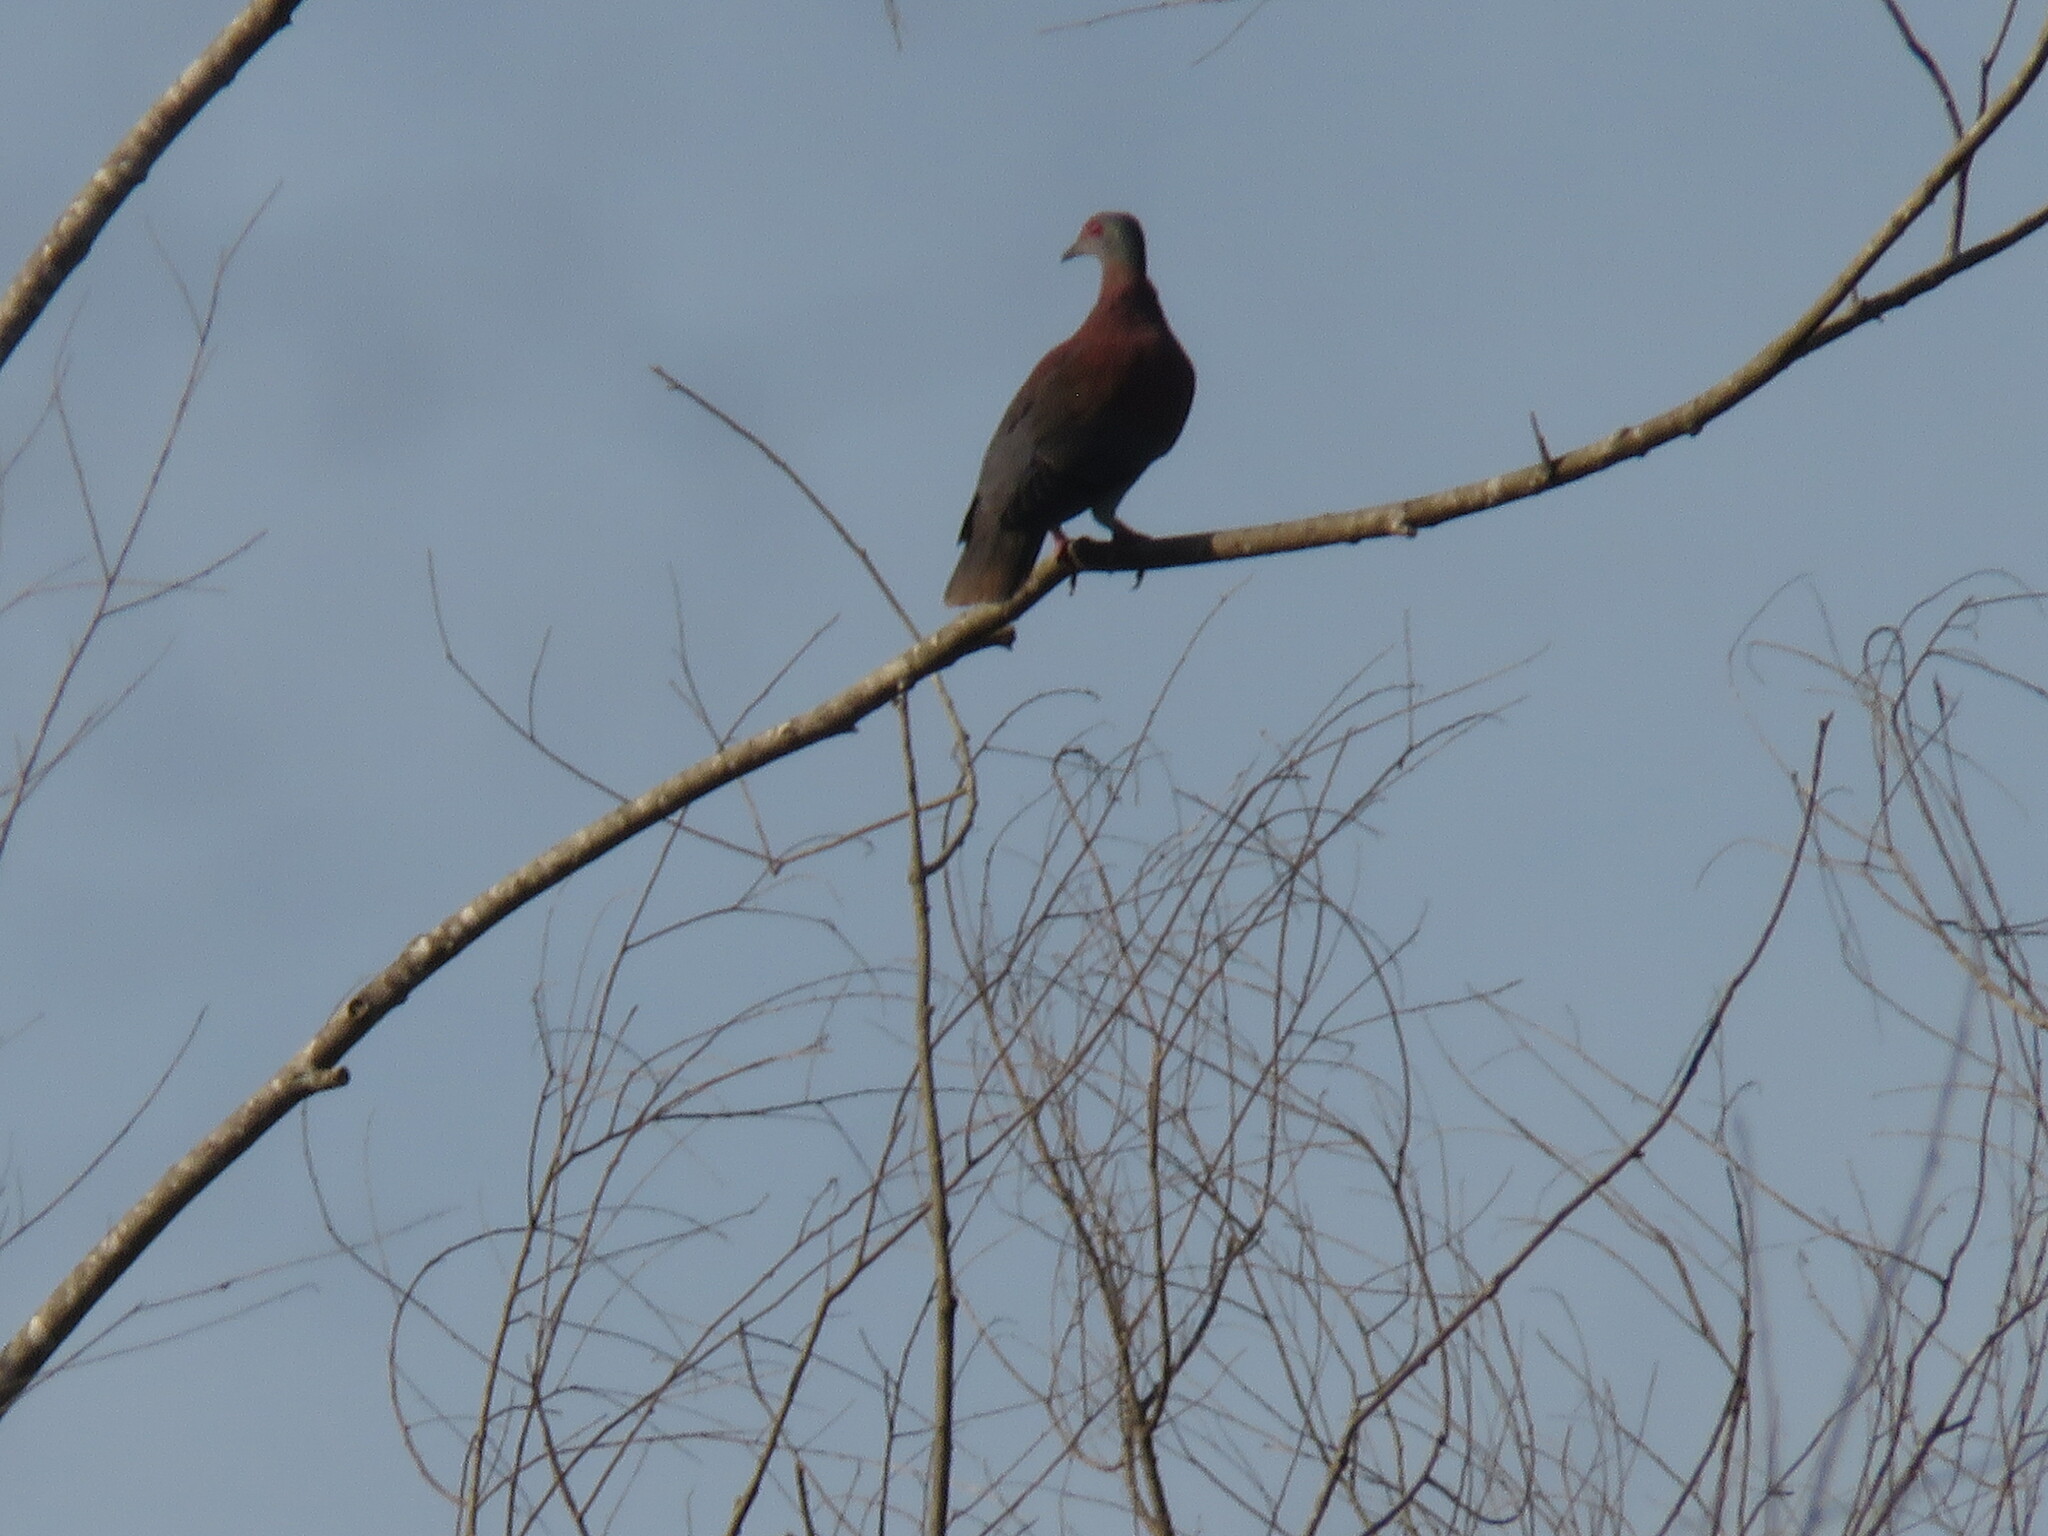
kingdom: Animalia
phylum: Chordata
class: Aves
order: Columbiformes
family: Columbidae
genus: Patagioenas
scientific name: Patagioenas cayennensis
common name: Pale-vented pigeon
